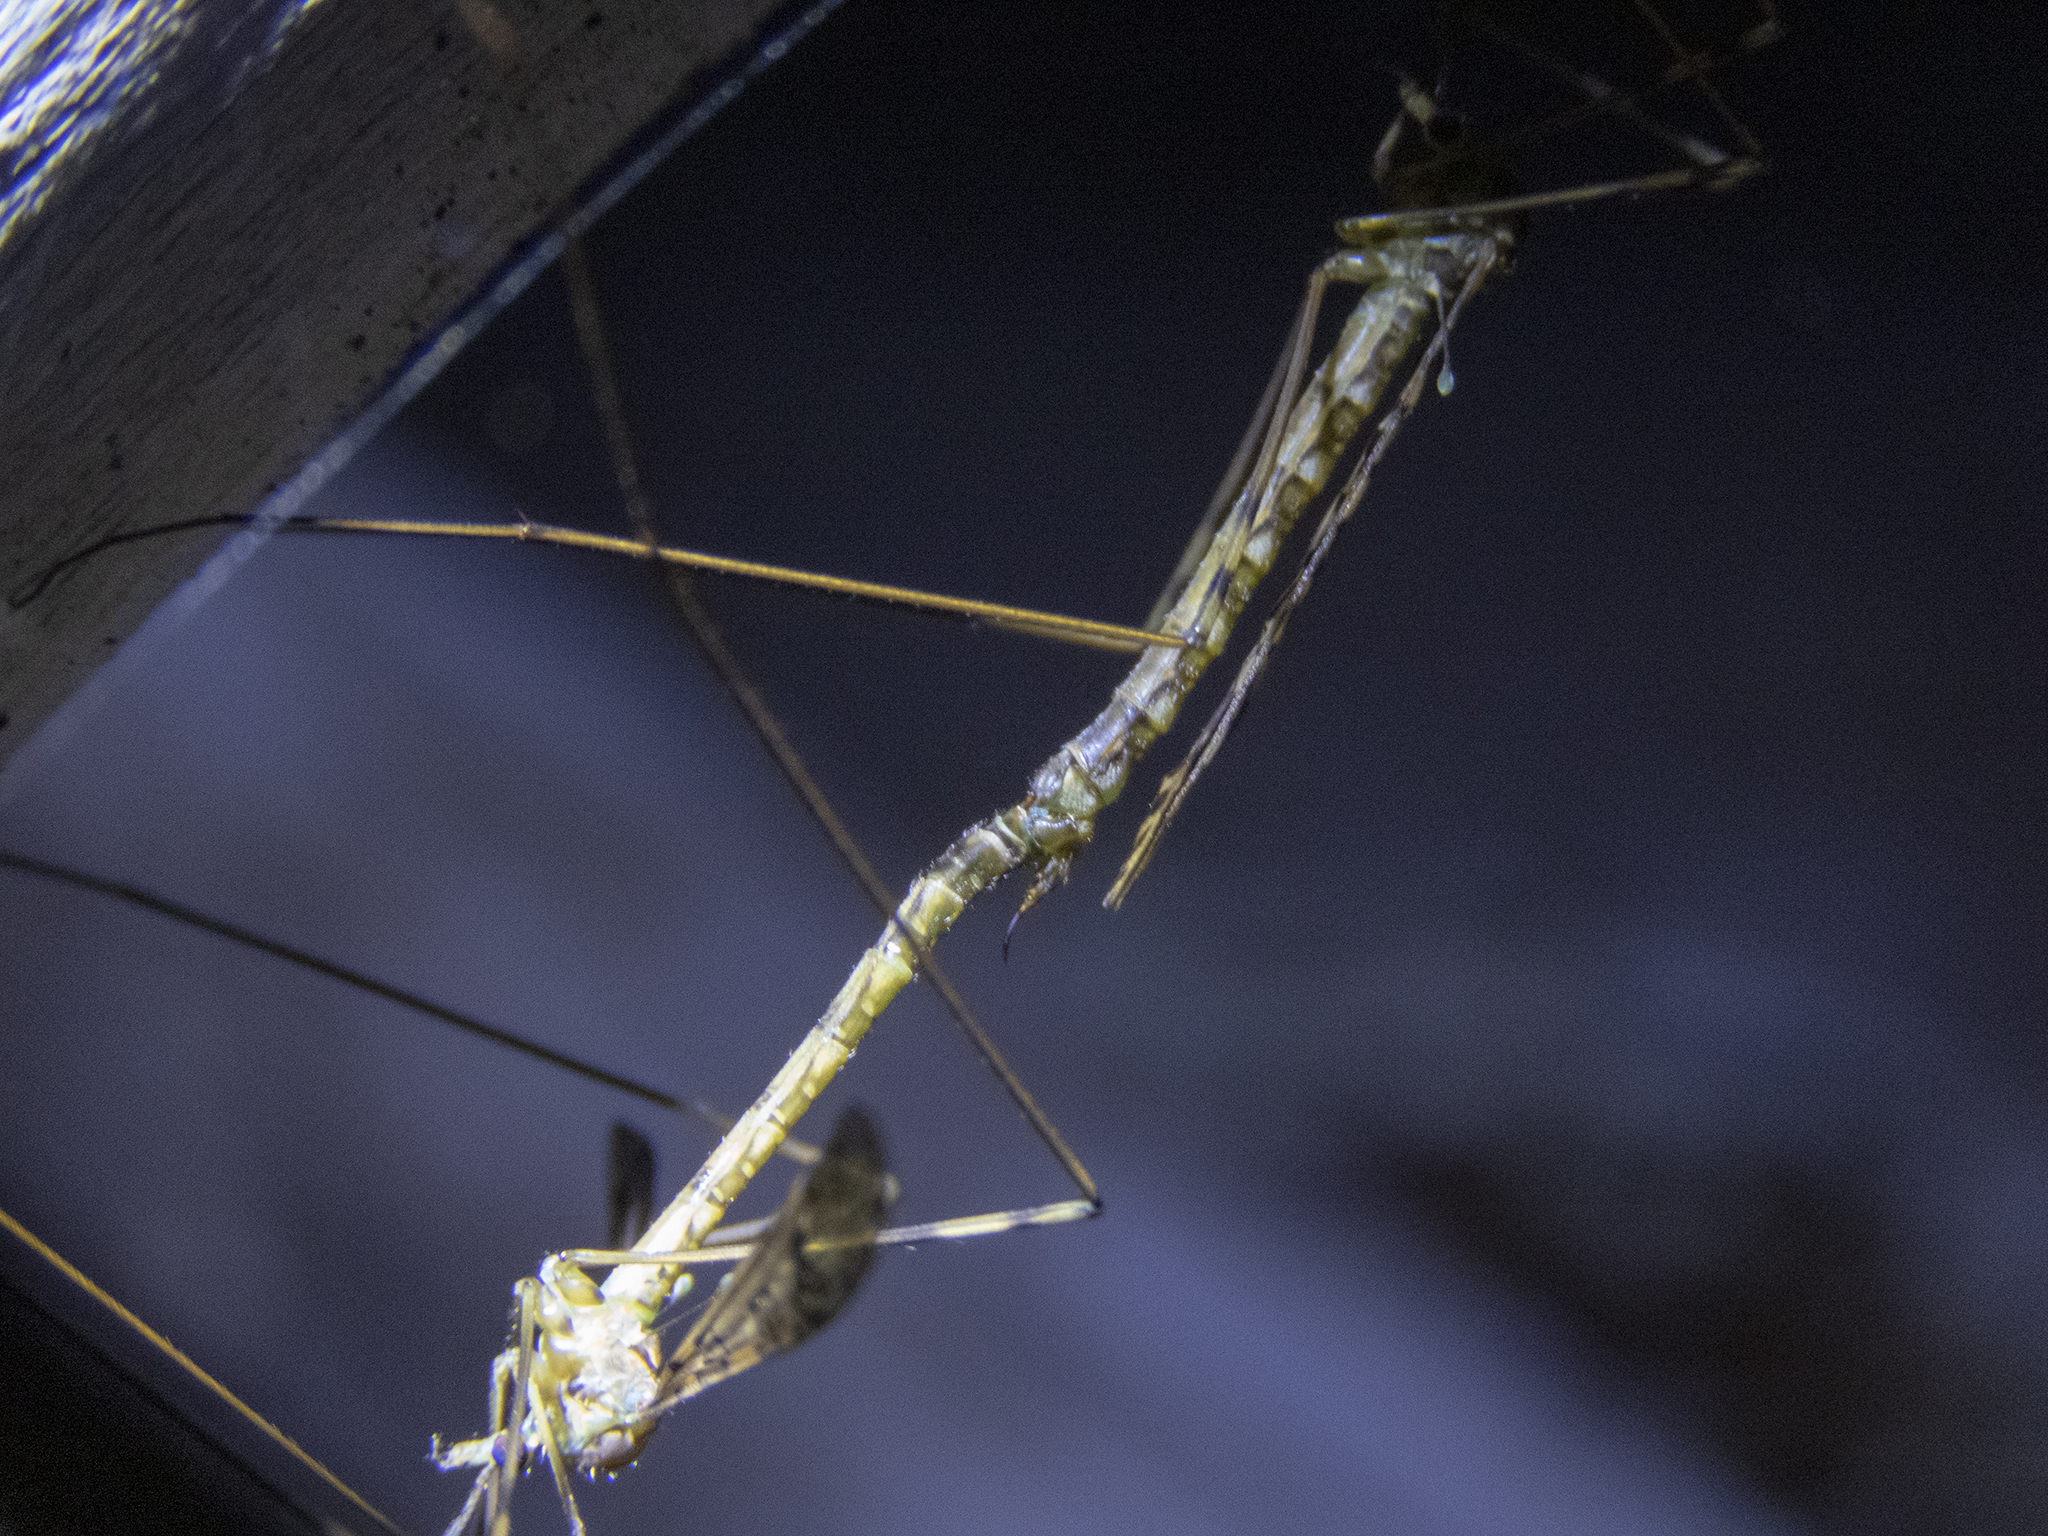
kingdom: Animalia
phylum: Arthropoda
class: Insecta
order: Diptera
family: Limoniidae
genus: Austrolimnophila
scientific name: Austrolimnophila argus
